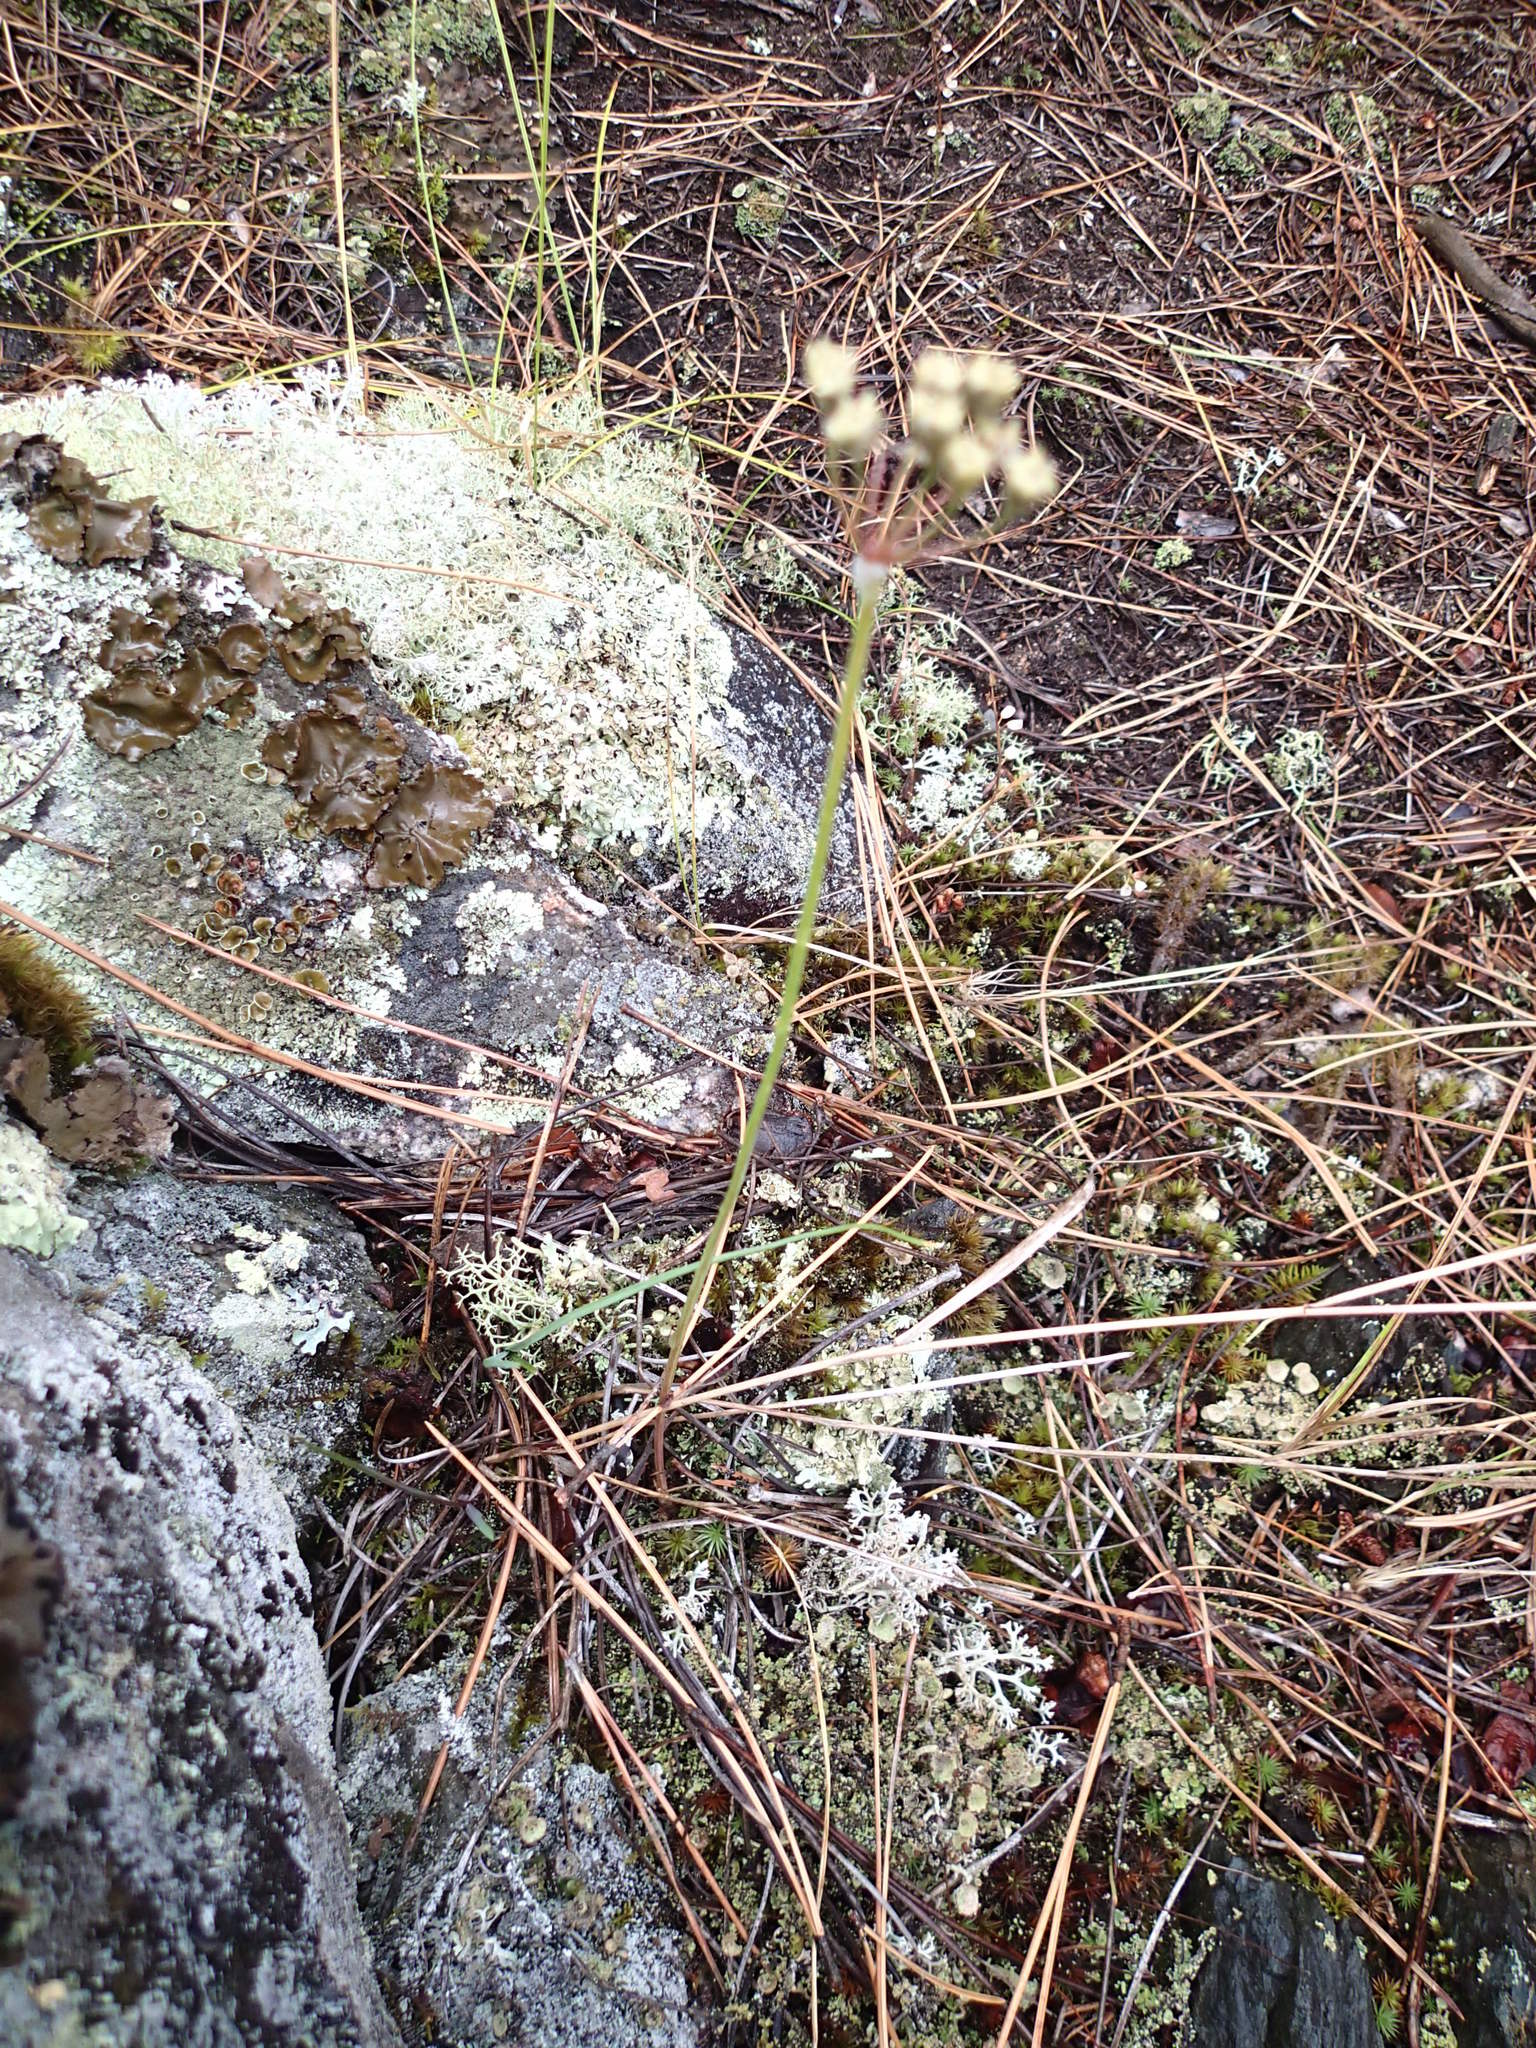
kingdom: Plantae
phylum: Tracheophyta
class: Liliopsida
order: Asparagales
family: Amaryllidaceae
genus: Allium
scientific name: Allium stellatum
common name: Autumn onion
